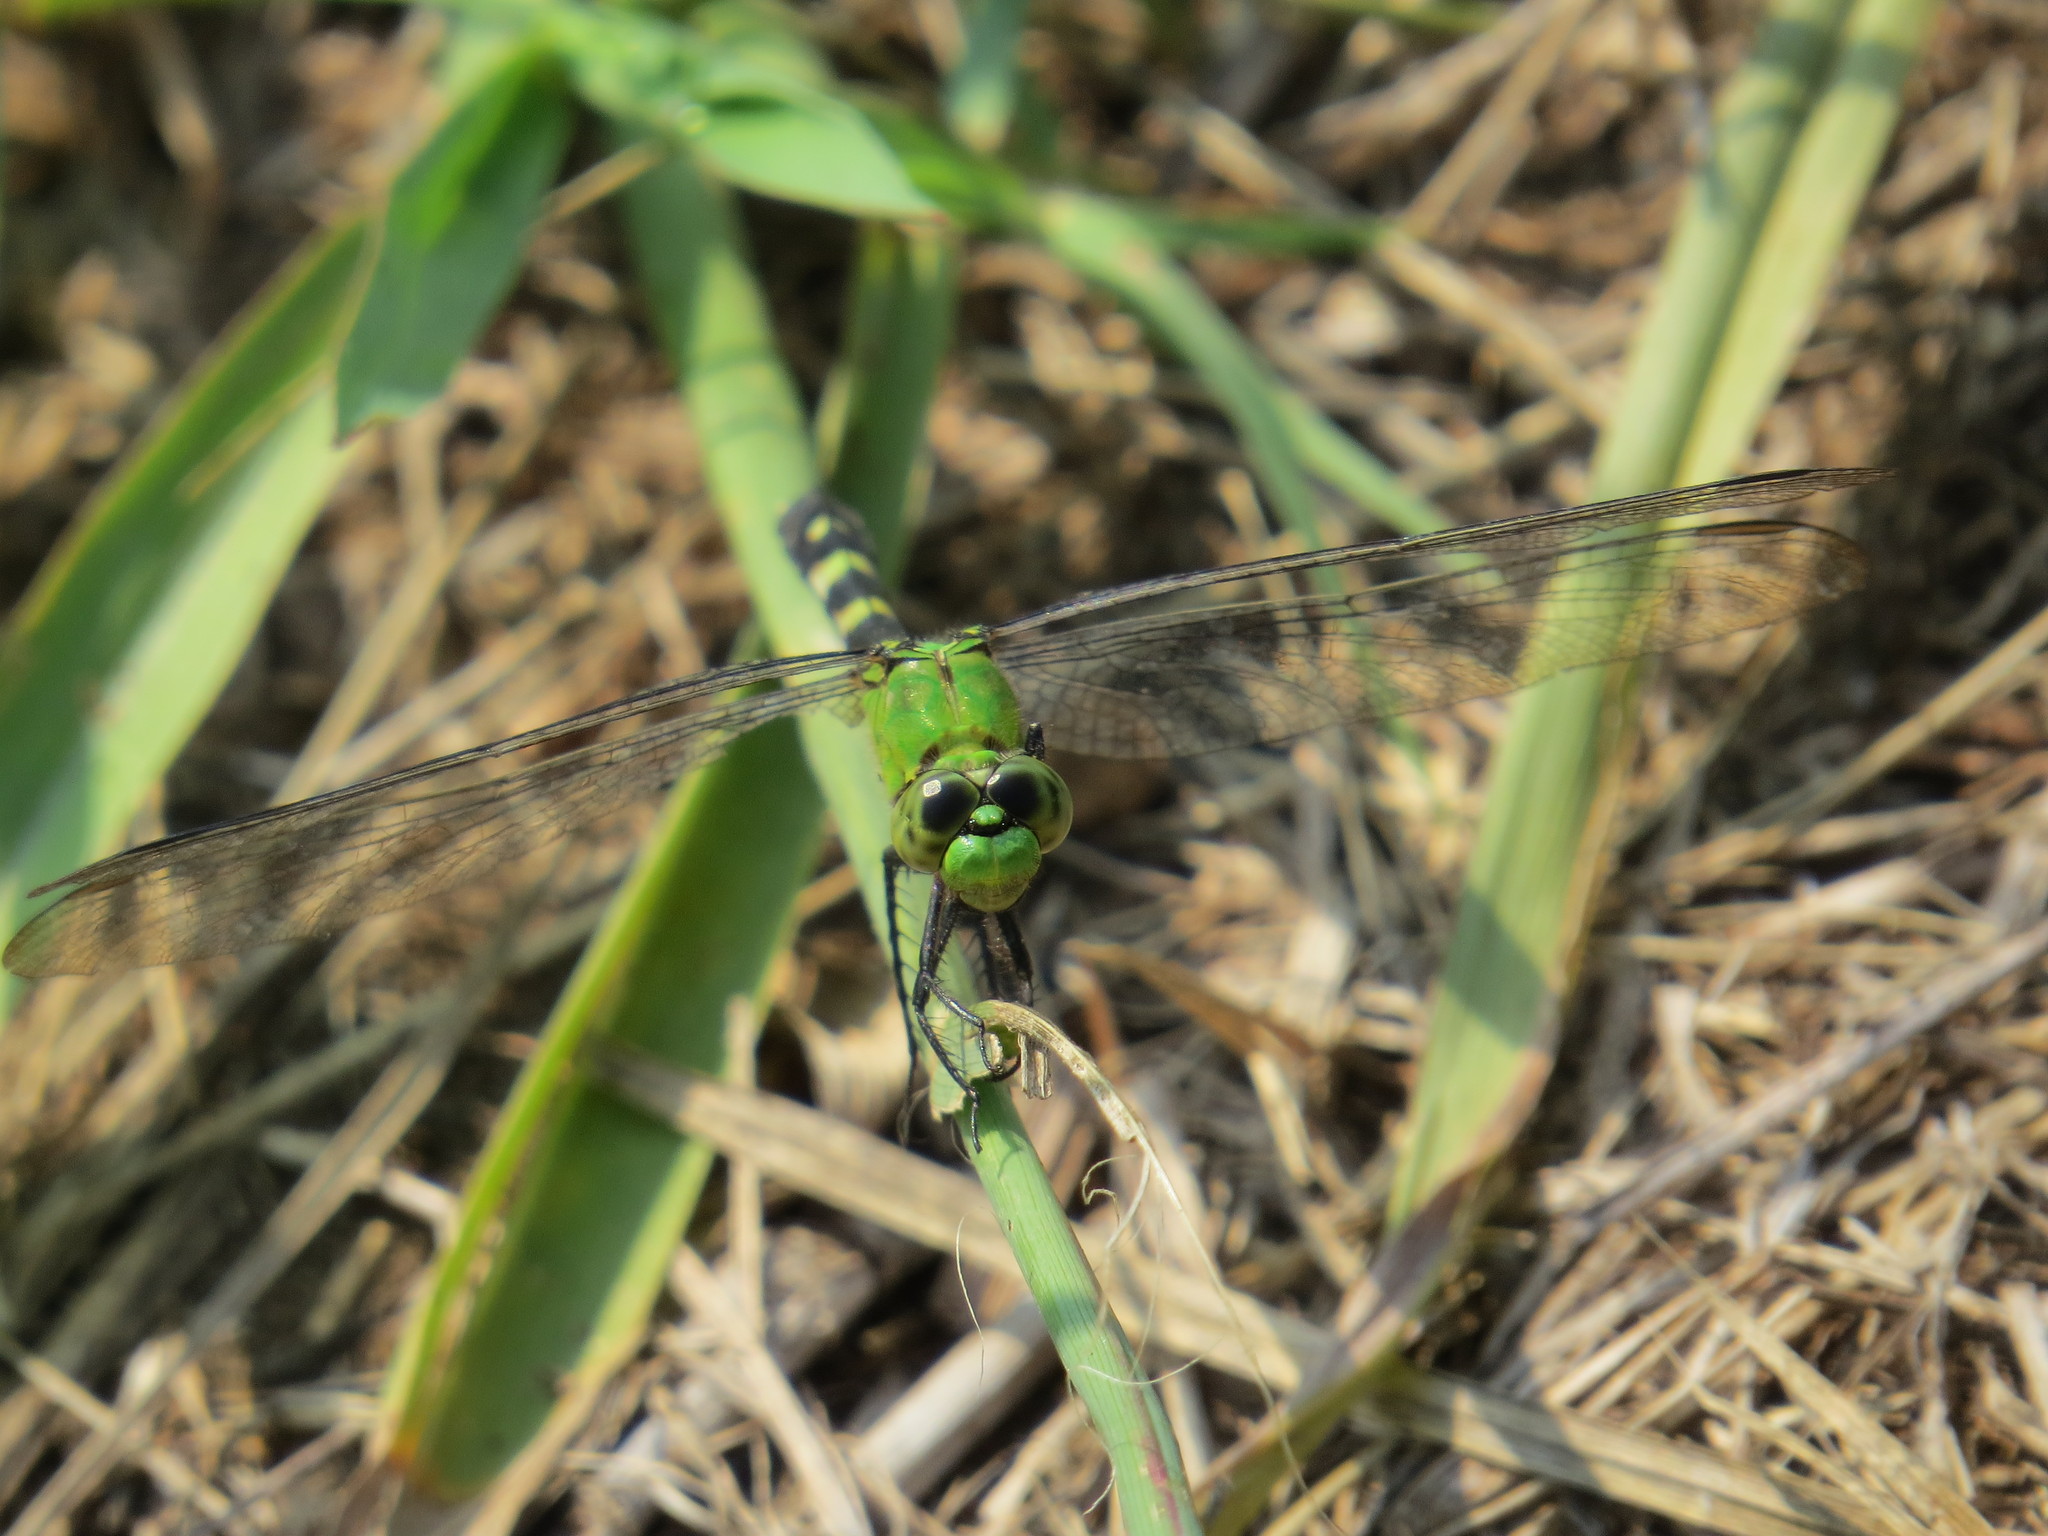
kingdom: Animalia
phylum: Arthropoda
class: Insecta
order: Odonata
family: Libellulidae
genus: Erythemis
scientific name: Erythemis simplicicollis
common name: Eastern pondhawk
